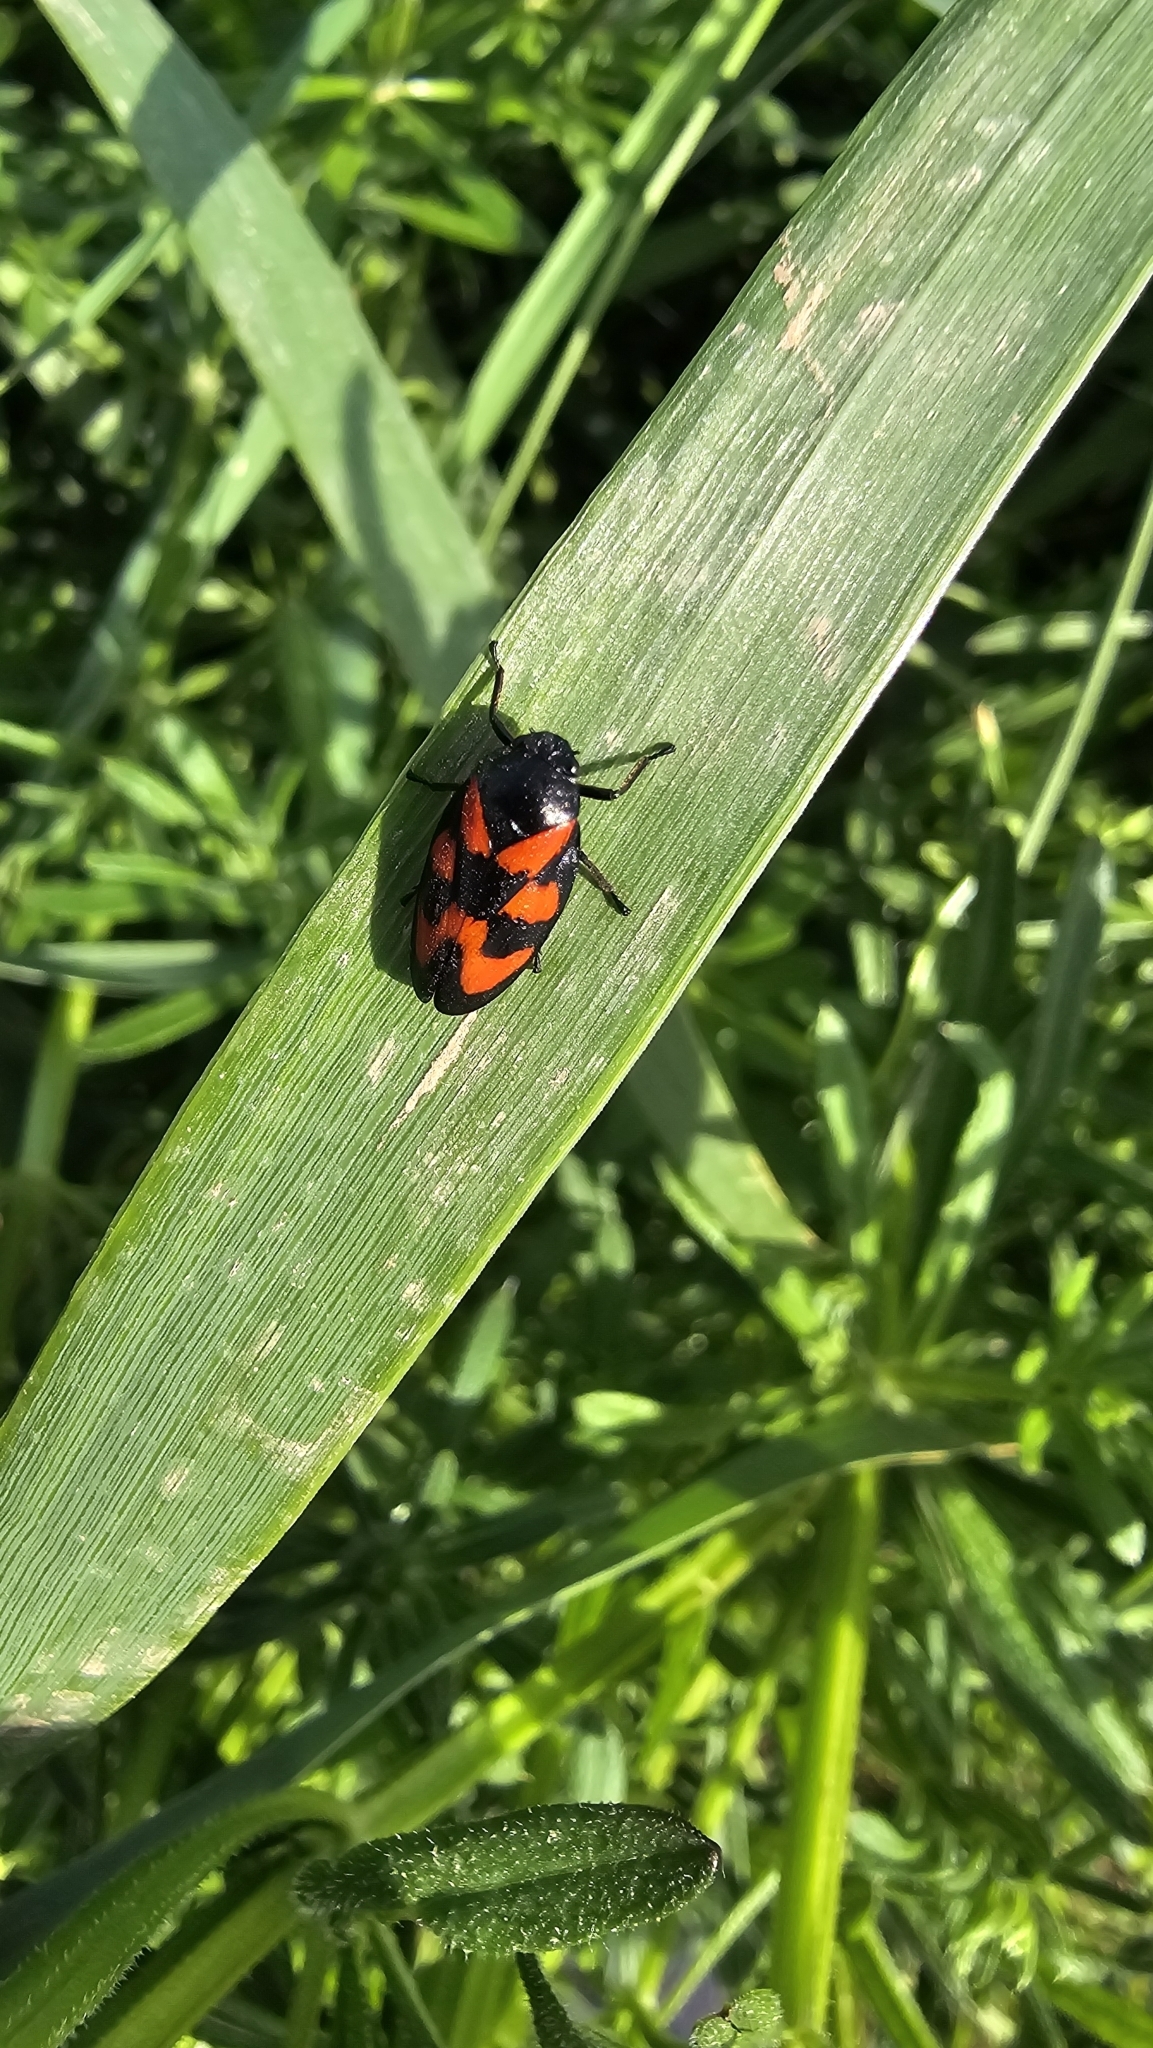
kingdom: Animalia
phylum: Arthropoda
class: Insecta
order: Hemiptera
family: Cercopidae
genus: Cercopis
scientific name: Cercopis vulnerata
